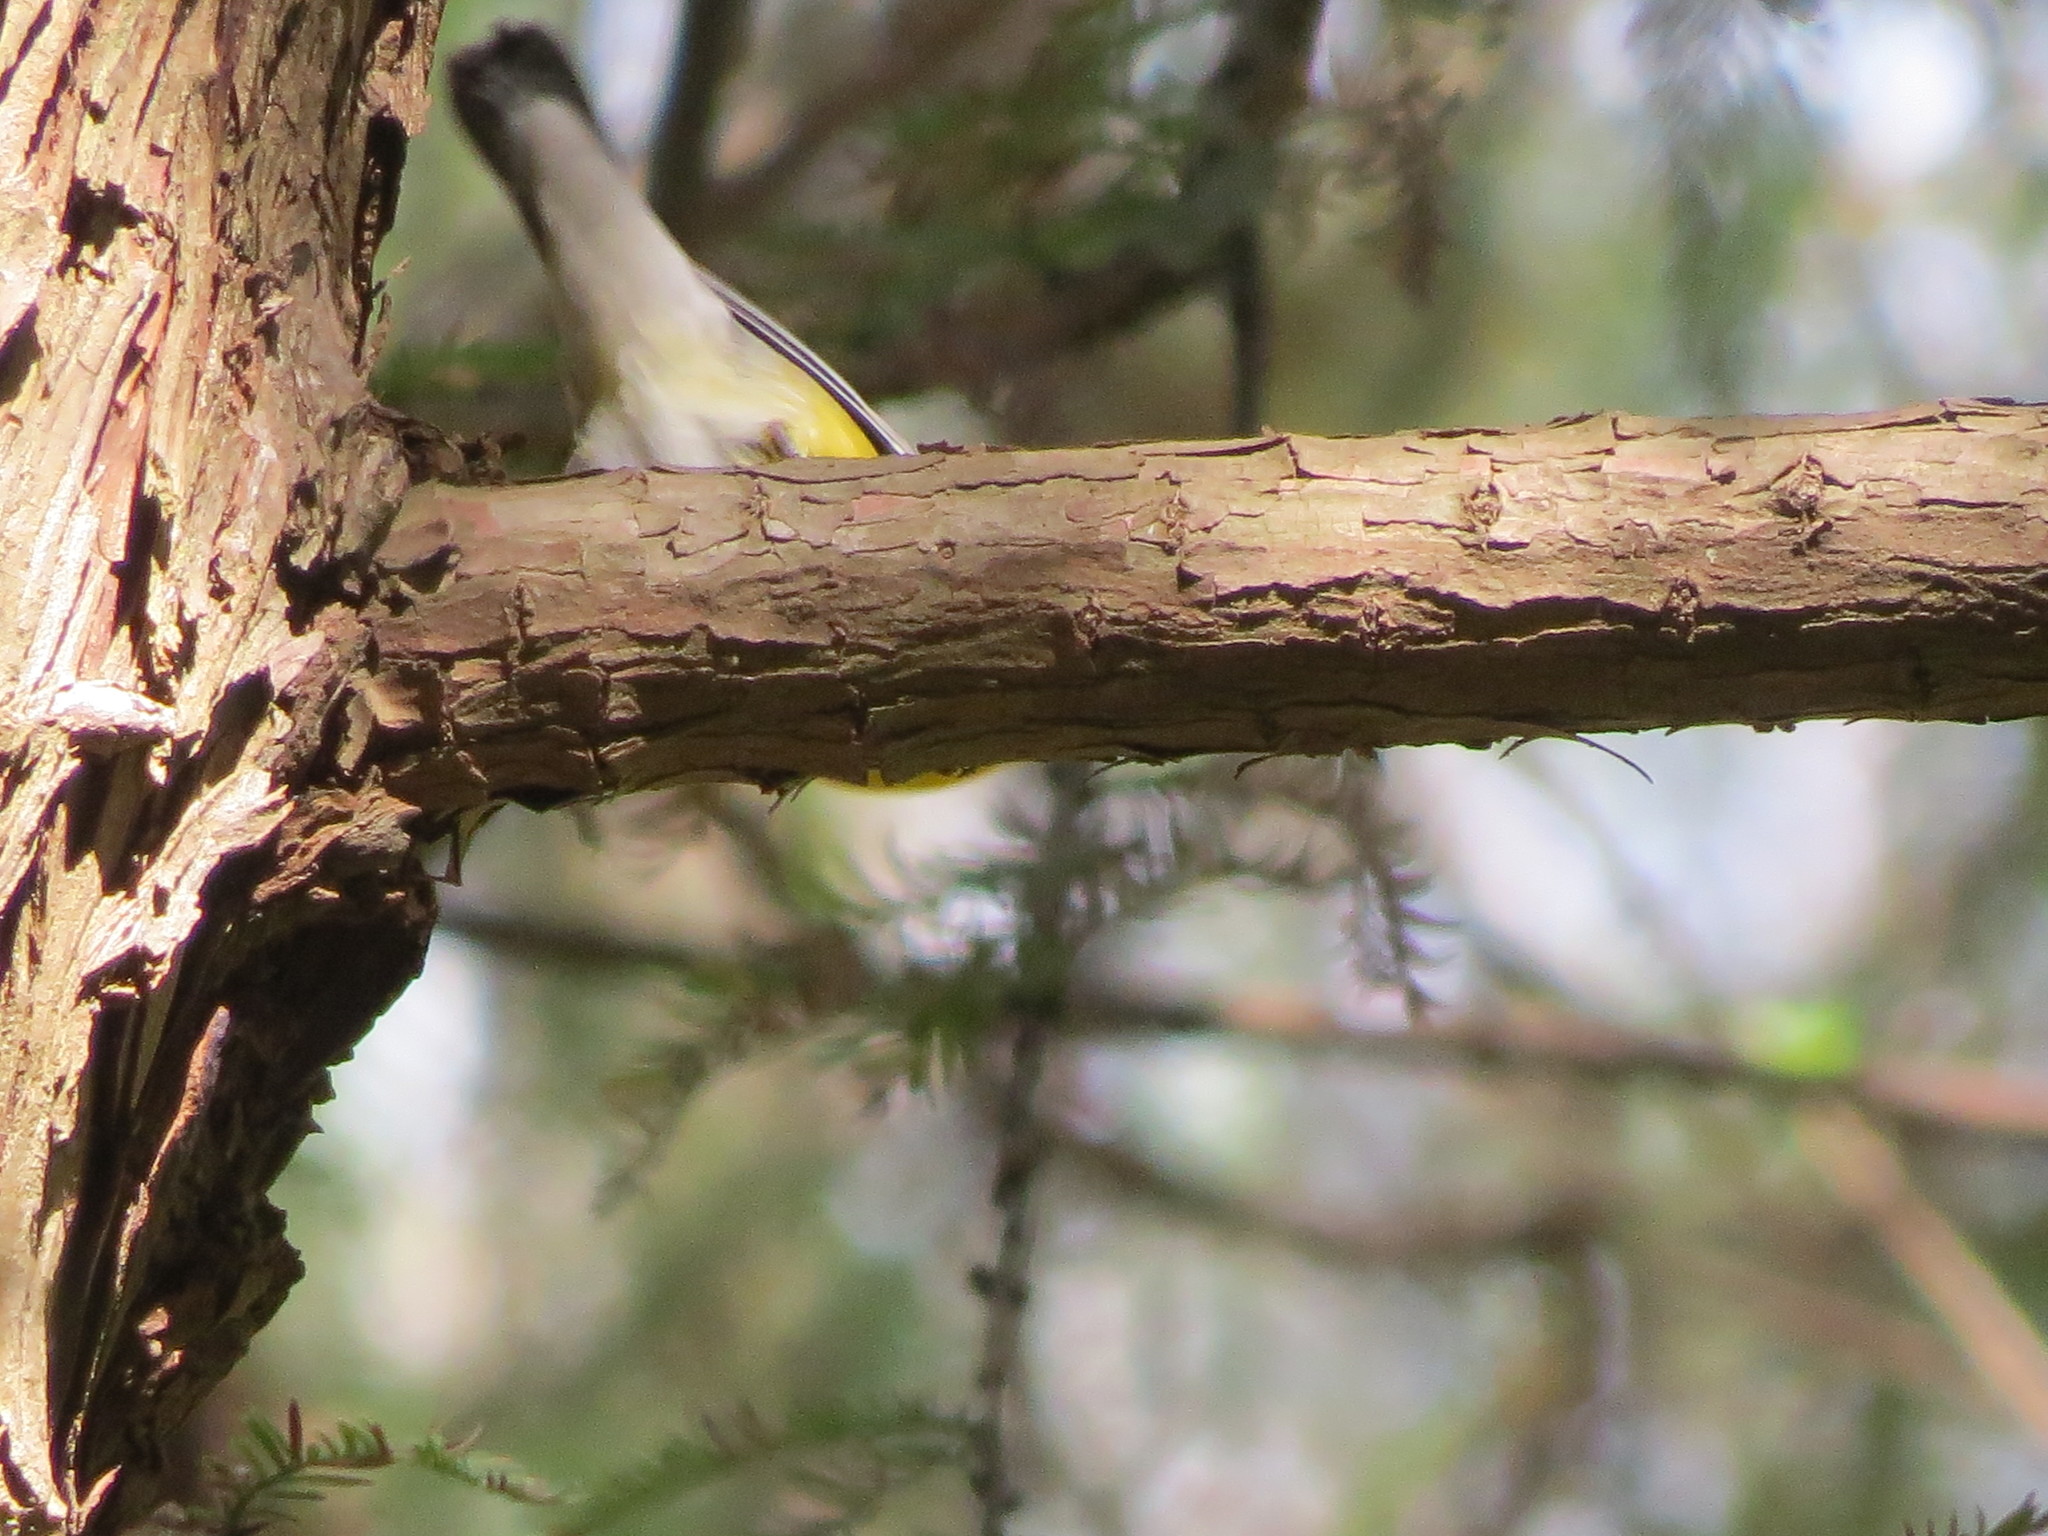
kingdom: Animalia
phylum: Chordata
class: Aves
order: Passeriformes
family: Parulidae
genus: Protonotaria
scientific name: Protonotaria citrea
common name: Prothonotary warbler
